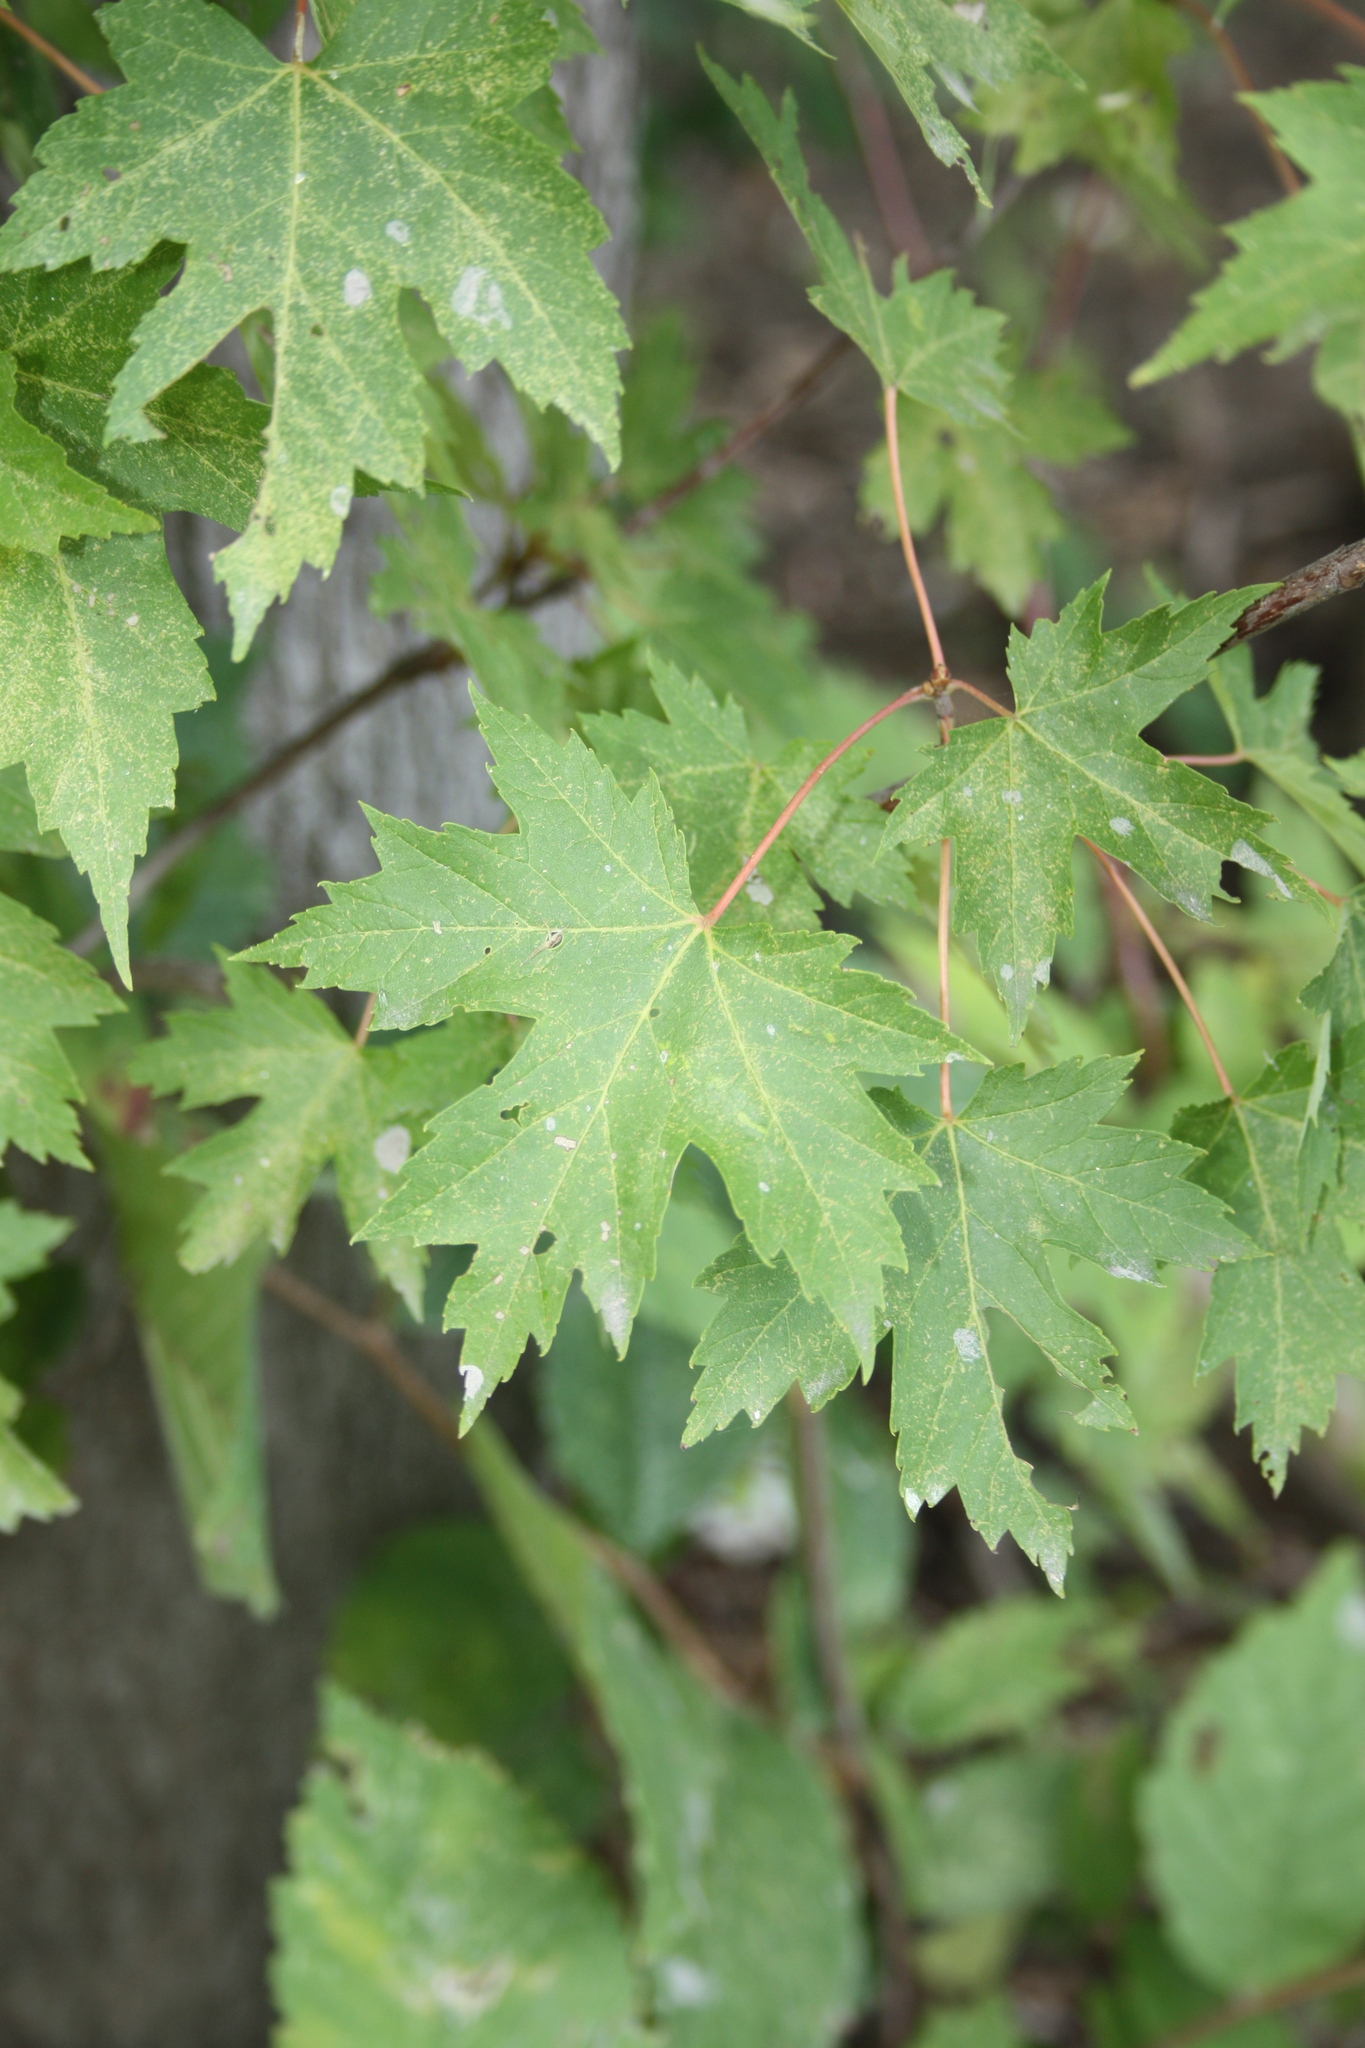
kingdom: Plantae
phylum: Tracheophyta
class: Magnoliopsida
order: Sapindales
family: Sapindaceae
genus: Acer
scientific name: Acer saccharinum
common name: Silver maple
